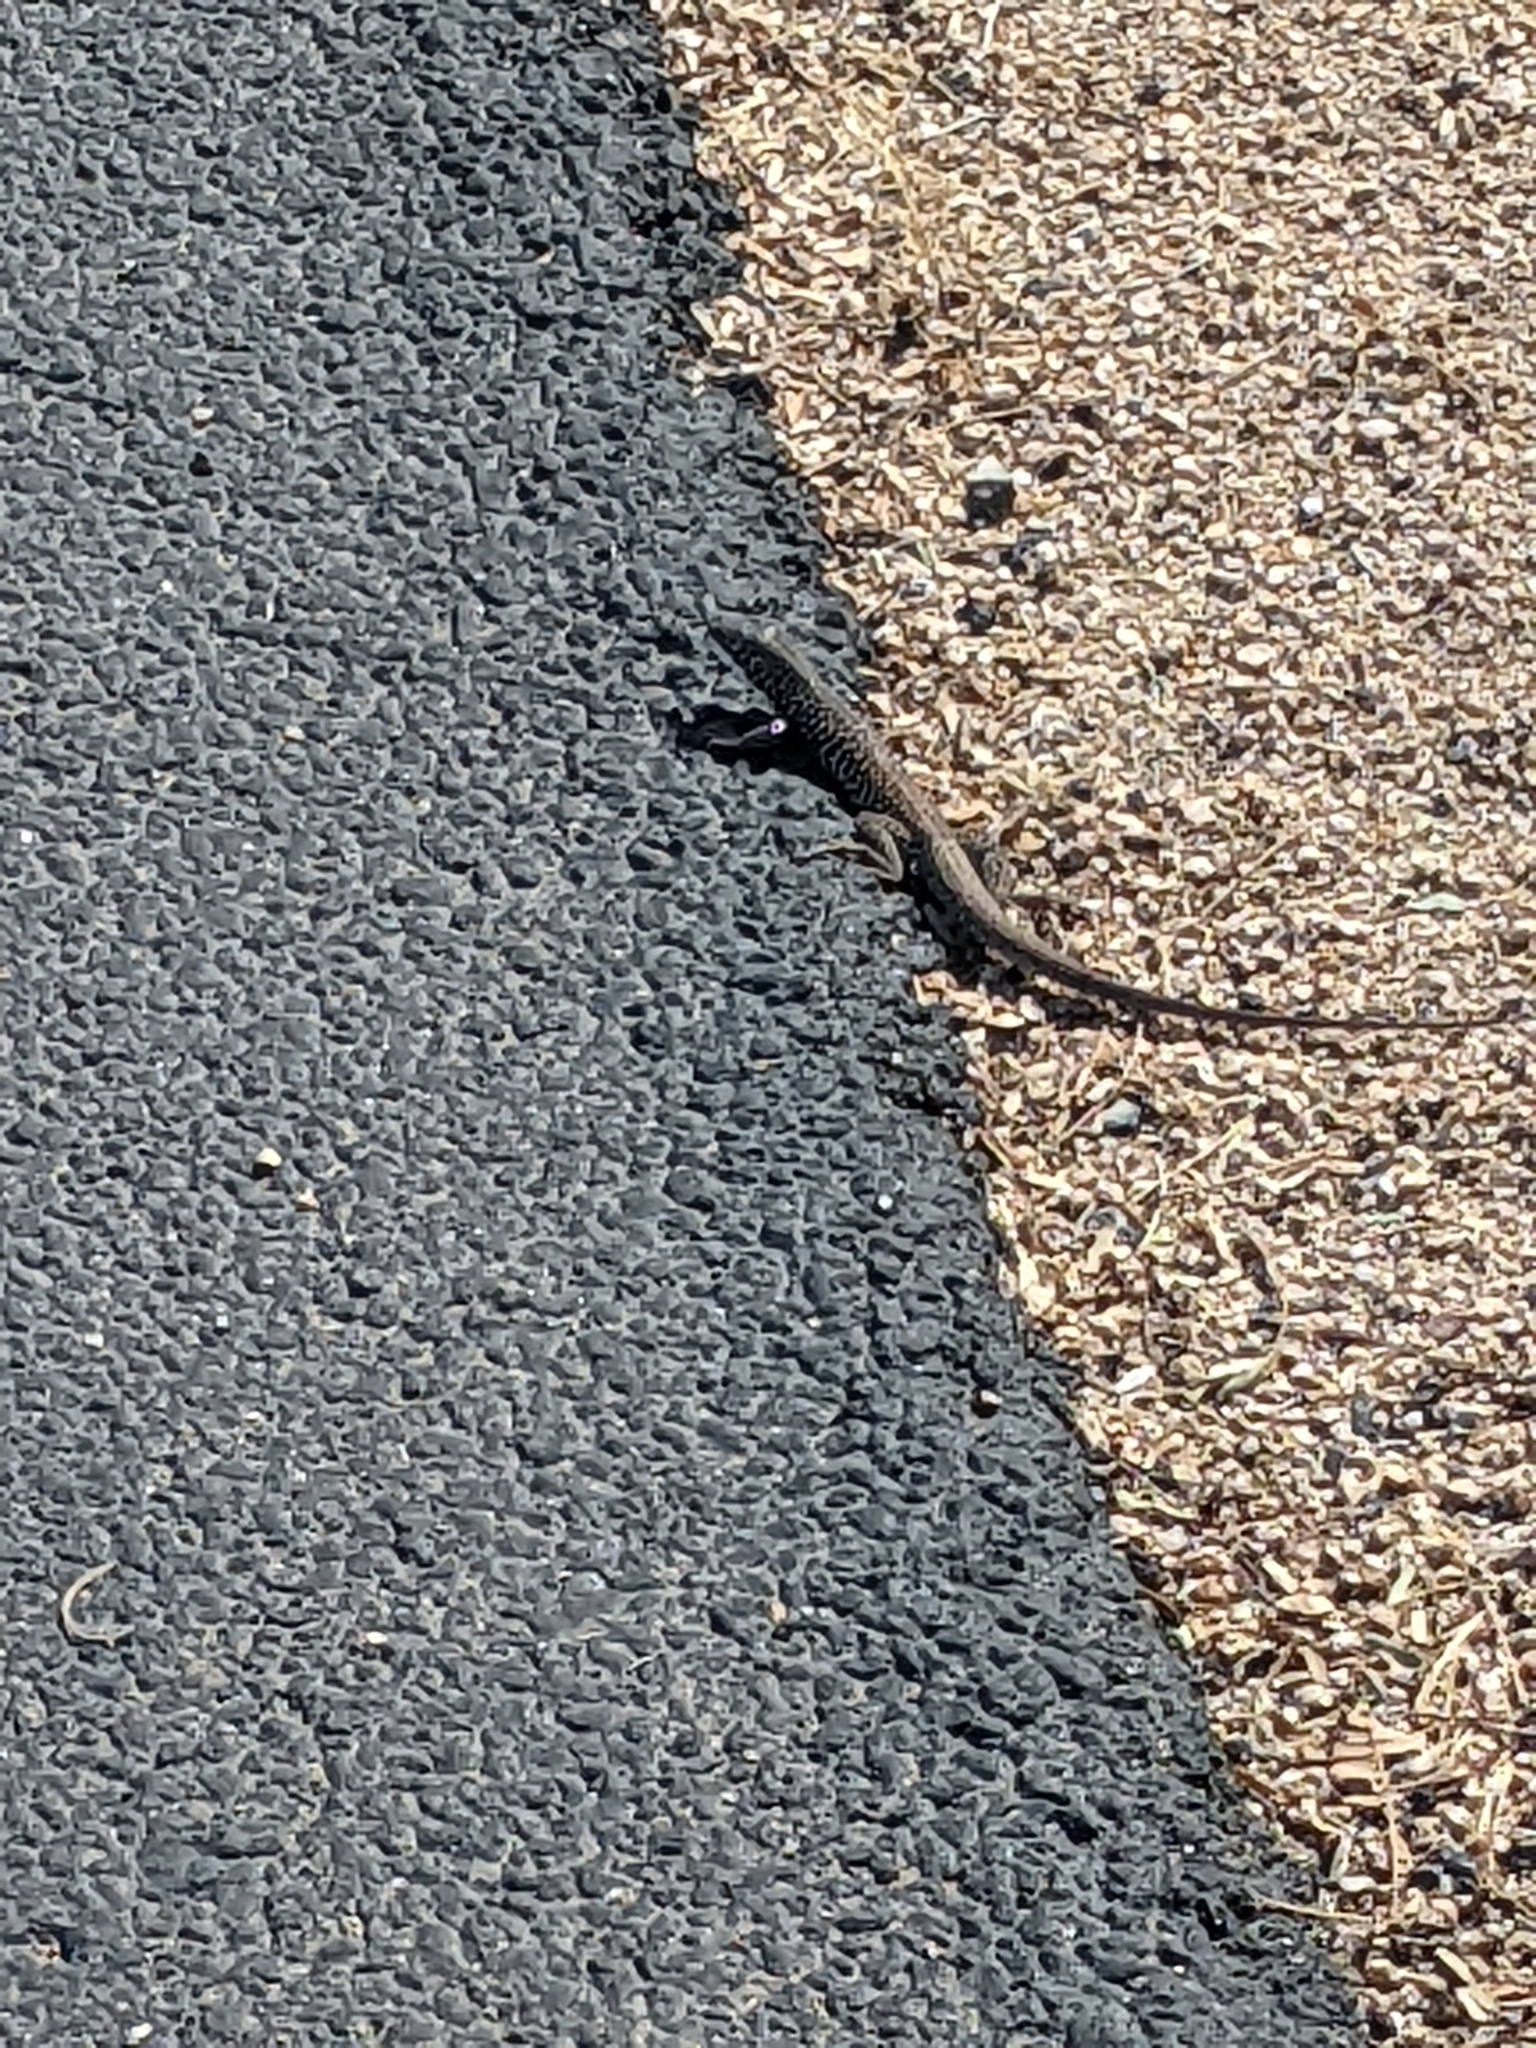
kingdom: Animalia
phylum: Chordata
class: Squamata
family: Teiidae
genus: Aspidoscelis
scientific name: Aspidoscelis tigris
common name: Tiger whiptail
